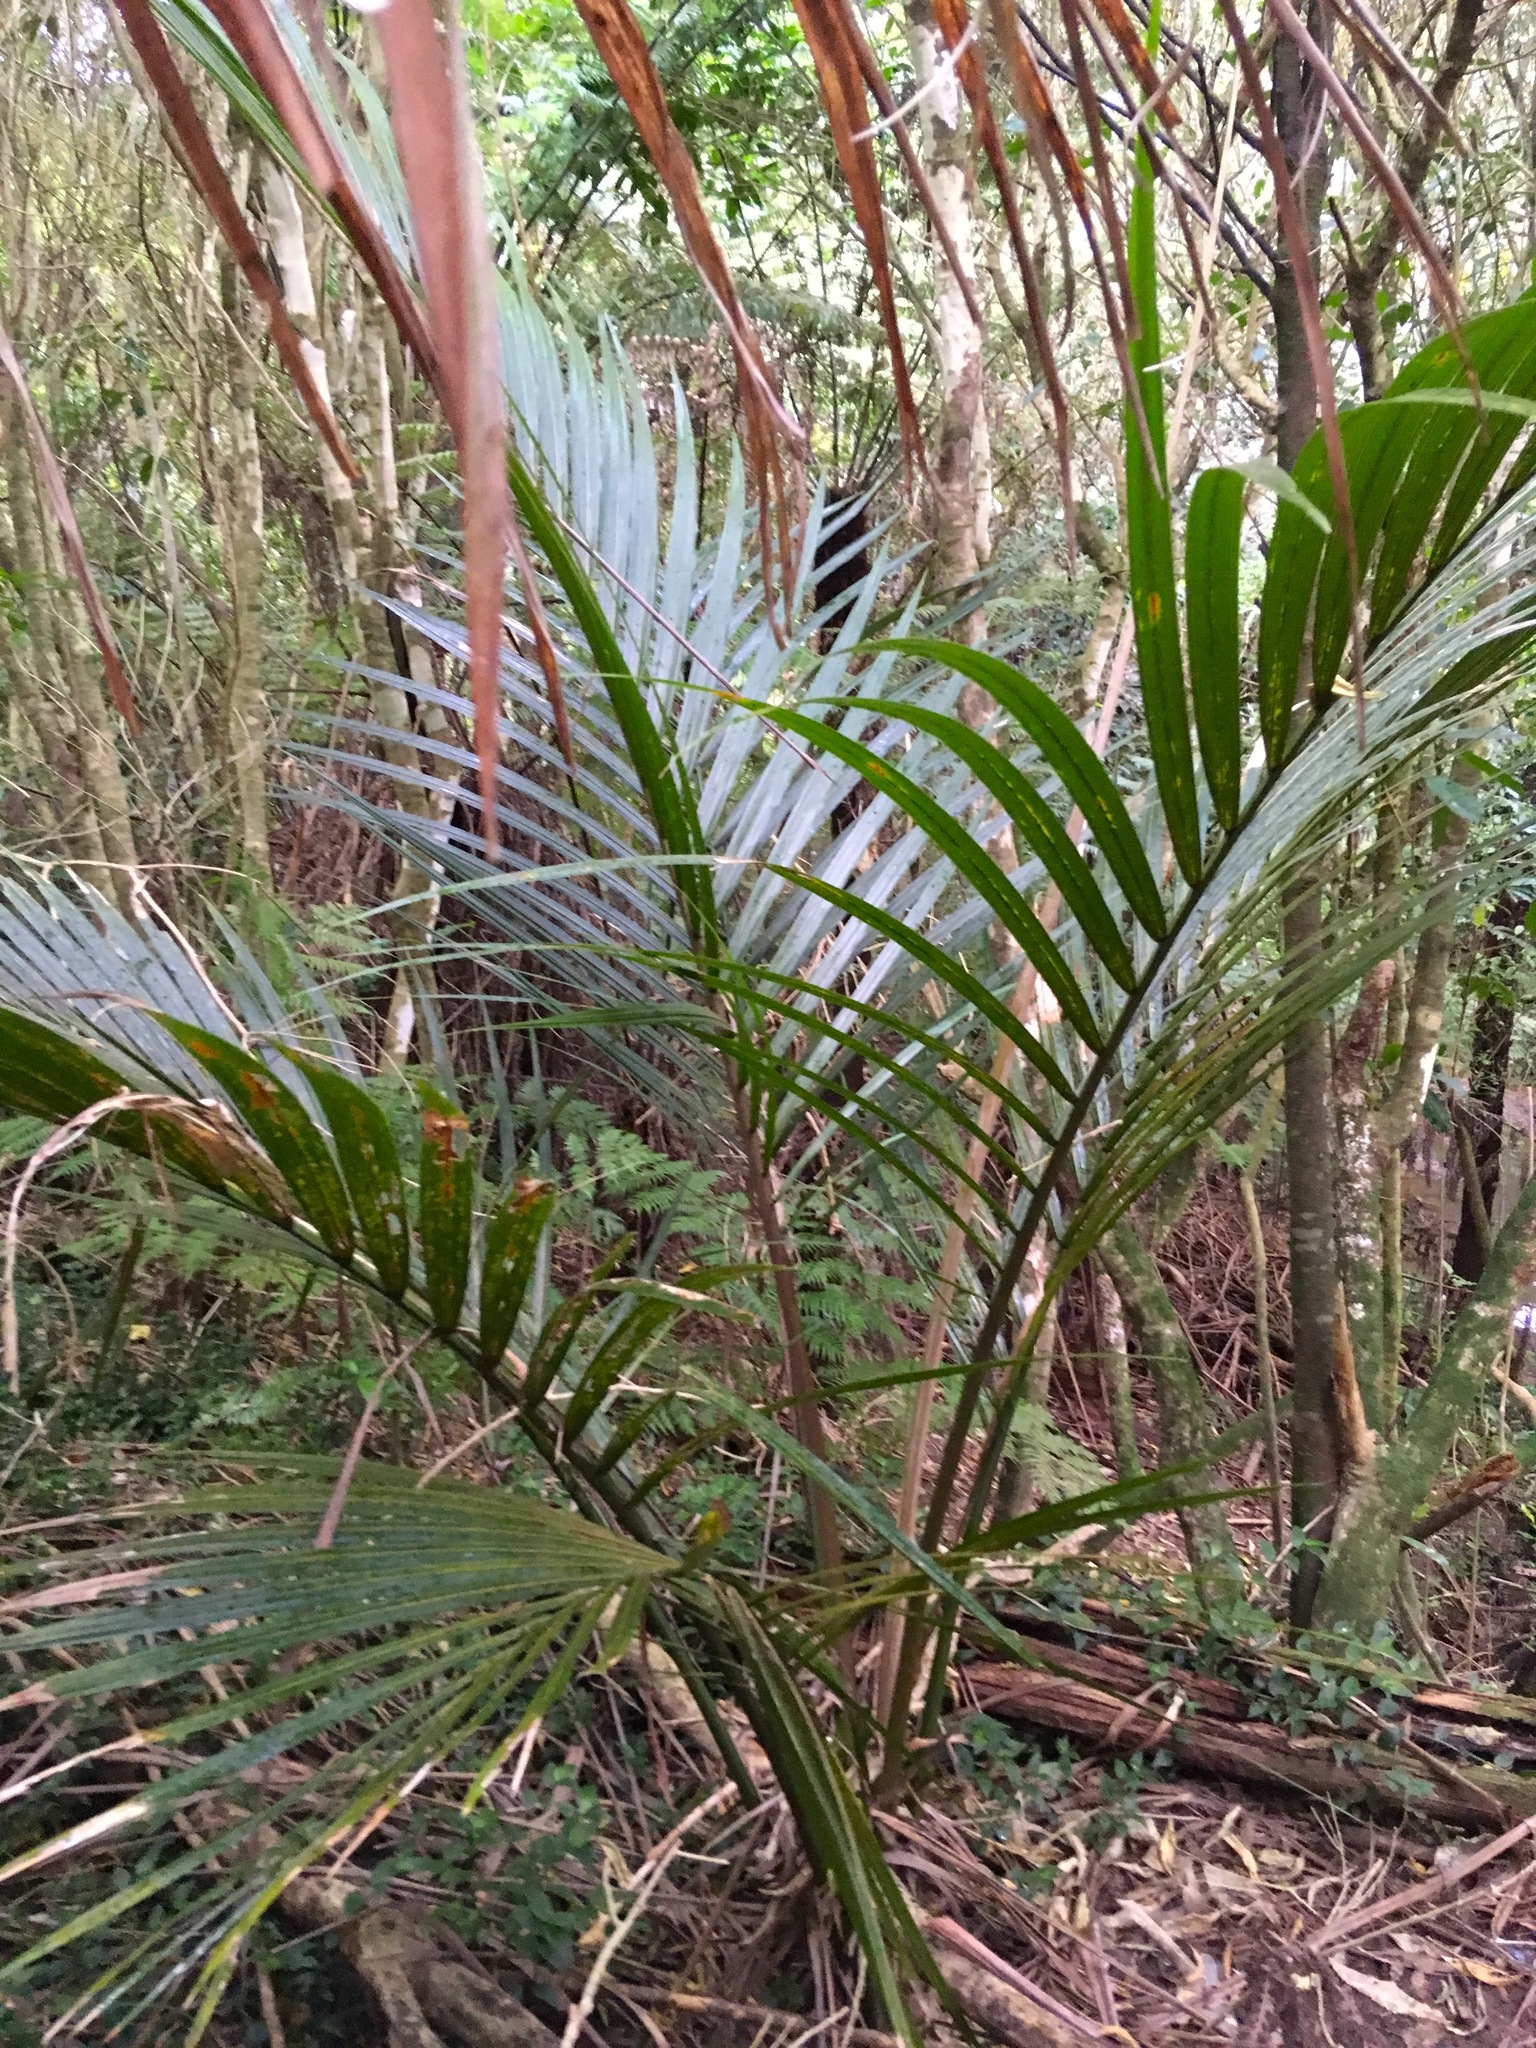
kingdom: Plantae
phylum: Tracheophyta
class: Liliopsida
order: Arecales
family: Arecaceae
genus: Rhopalostylis
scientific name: Rhopalostylis sapida
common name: Feather-duster palm
